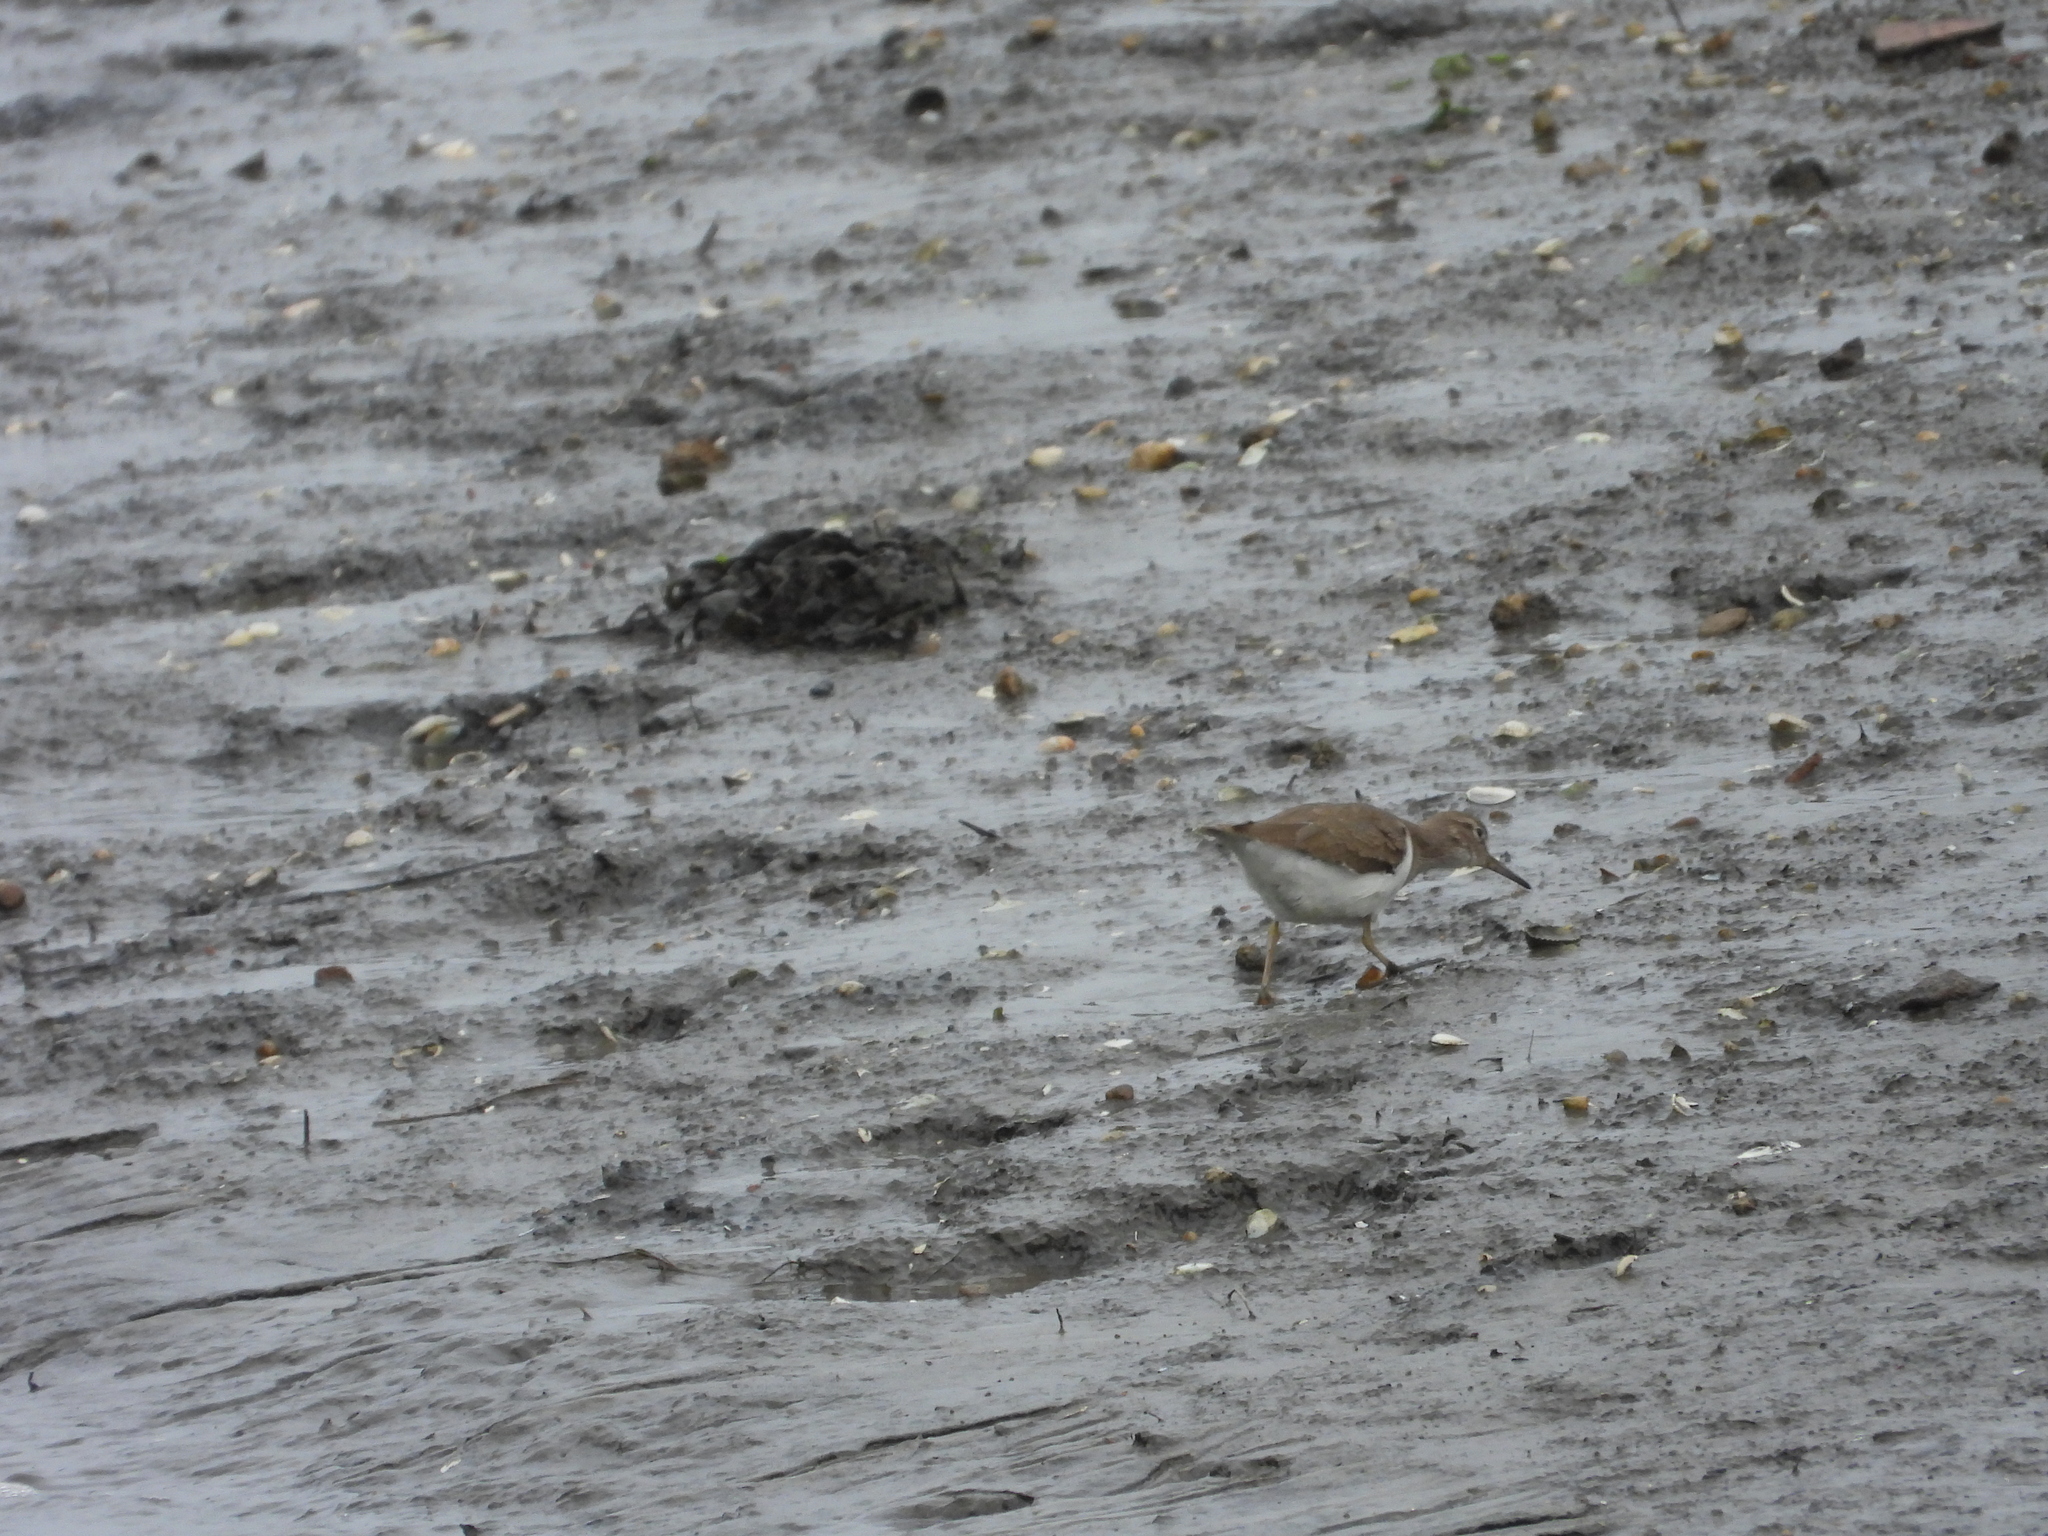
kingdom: Animalia
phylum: Chordata
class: Aves
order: Charadriiformes
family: Scolopacidae
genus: Actitis
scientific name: Actitis hypoleucos
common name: Common sandpiper
